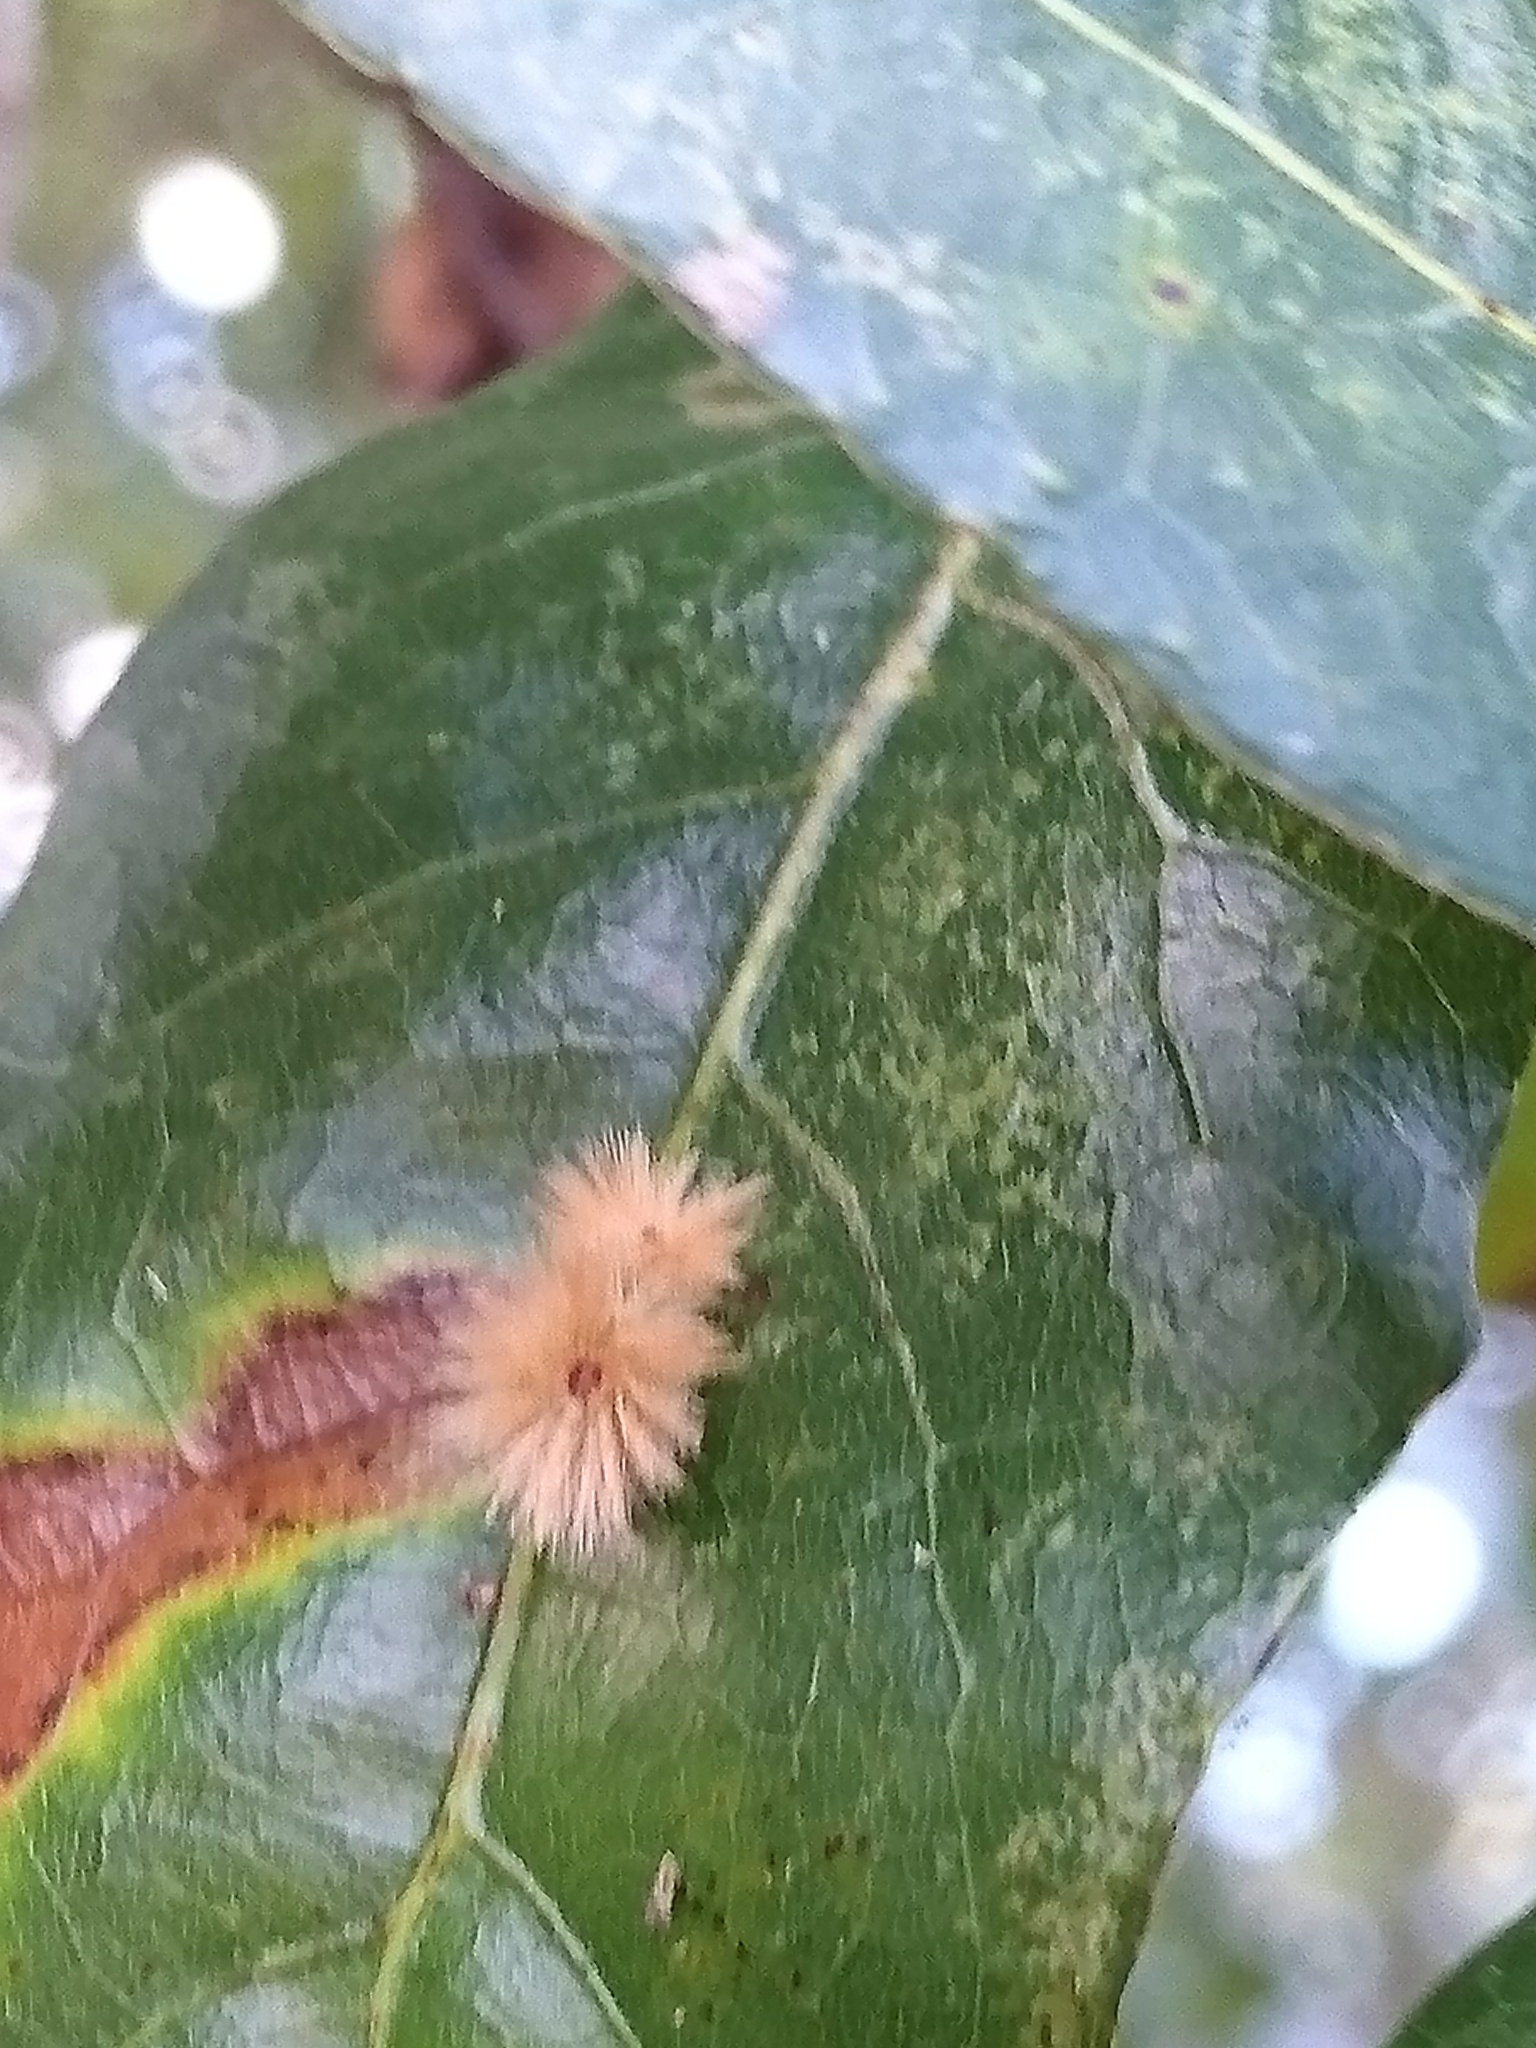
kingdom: Animalia
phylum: Arthropoda
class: Insecta
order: Hymenoptera
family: Cynipidae
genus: Callirhytis
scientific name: Callirhytis
